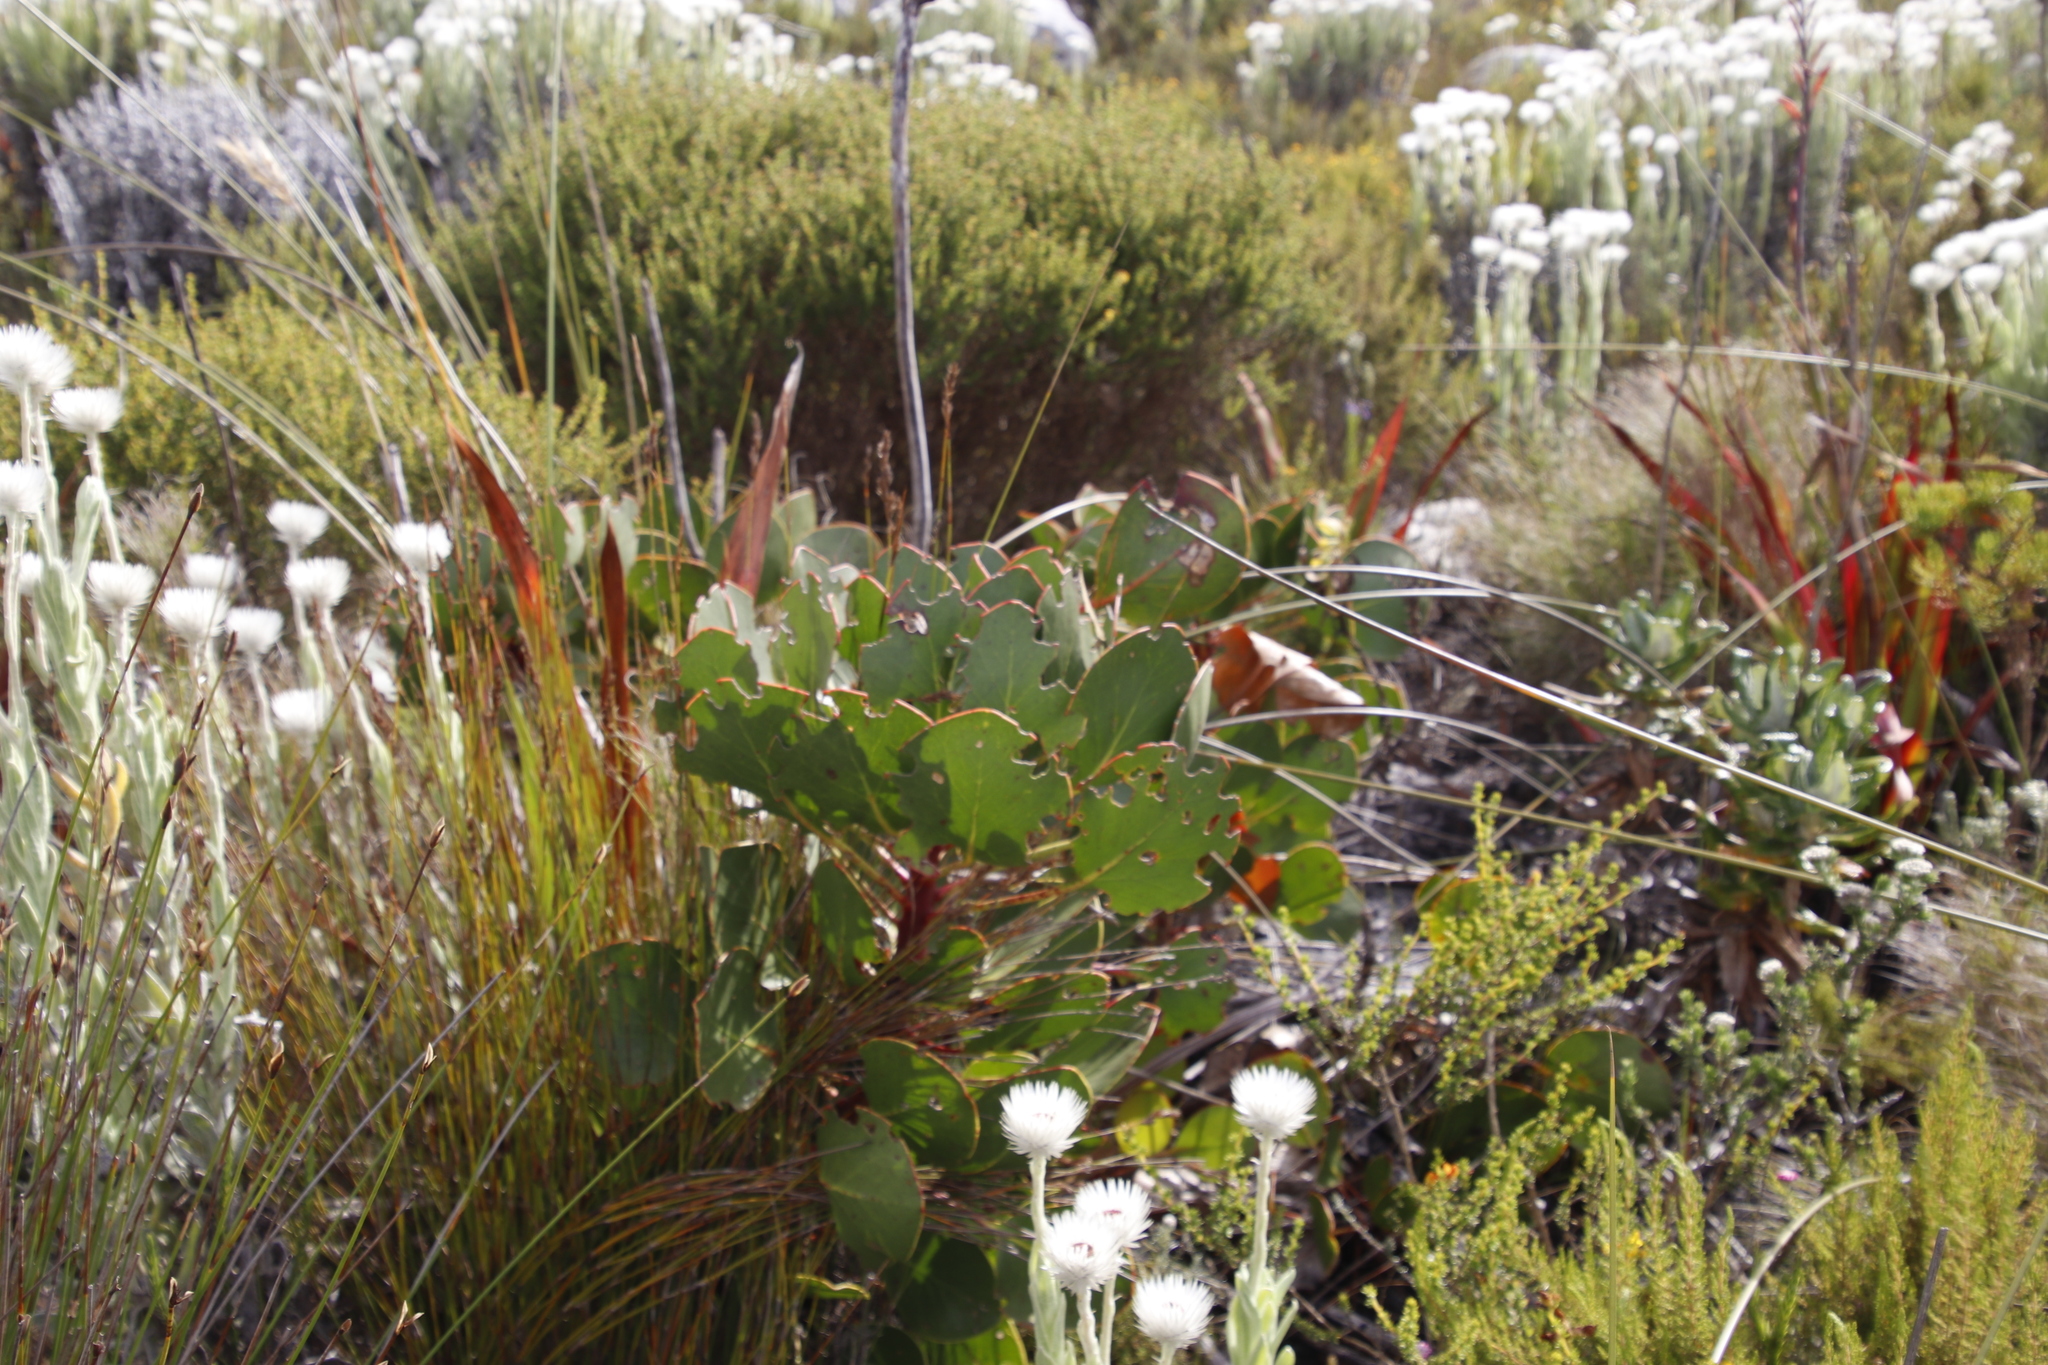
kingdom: Plantae
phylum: Tracheophyta
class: Magnoliopsida
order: Proteales
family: Proteaceae
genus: Protea
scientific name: Protea cynaroides
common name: King protea
